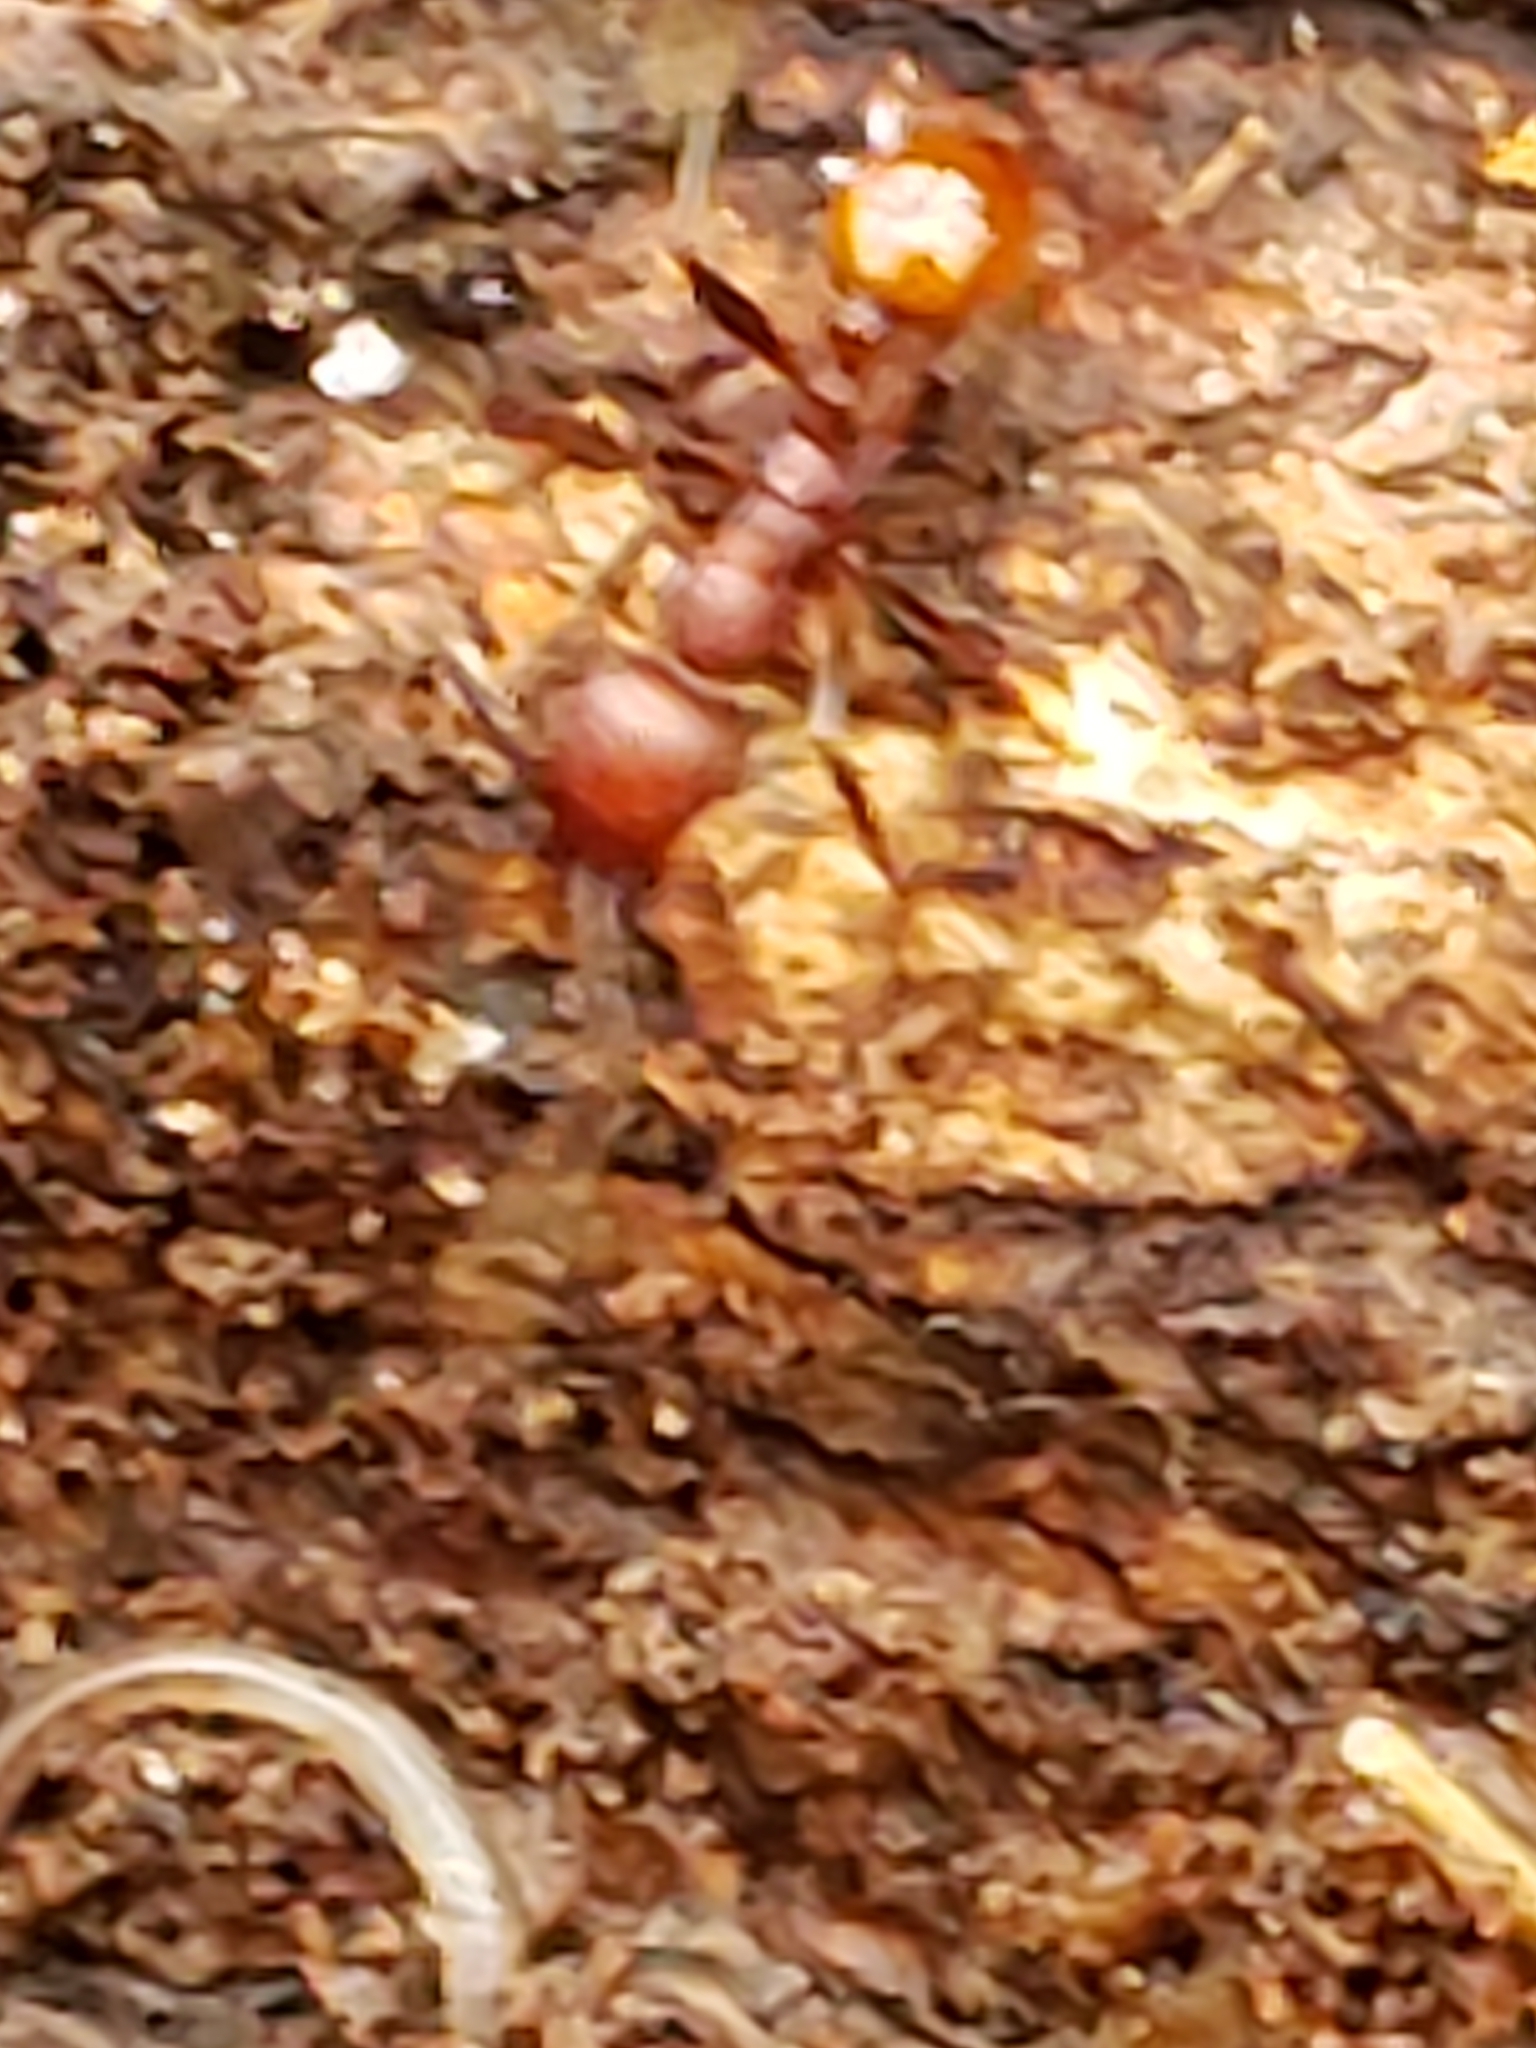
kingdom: Animalia
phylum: Arthropoda
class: Insecta
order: Hymenoptera
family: Formicidae
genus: Aphaenogaster
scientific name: Aphaenogaster tennesseensis
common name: Tennessee thread-waisted ant
